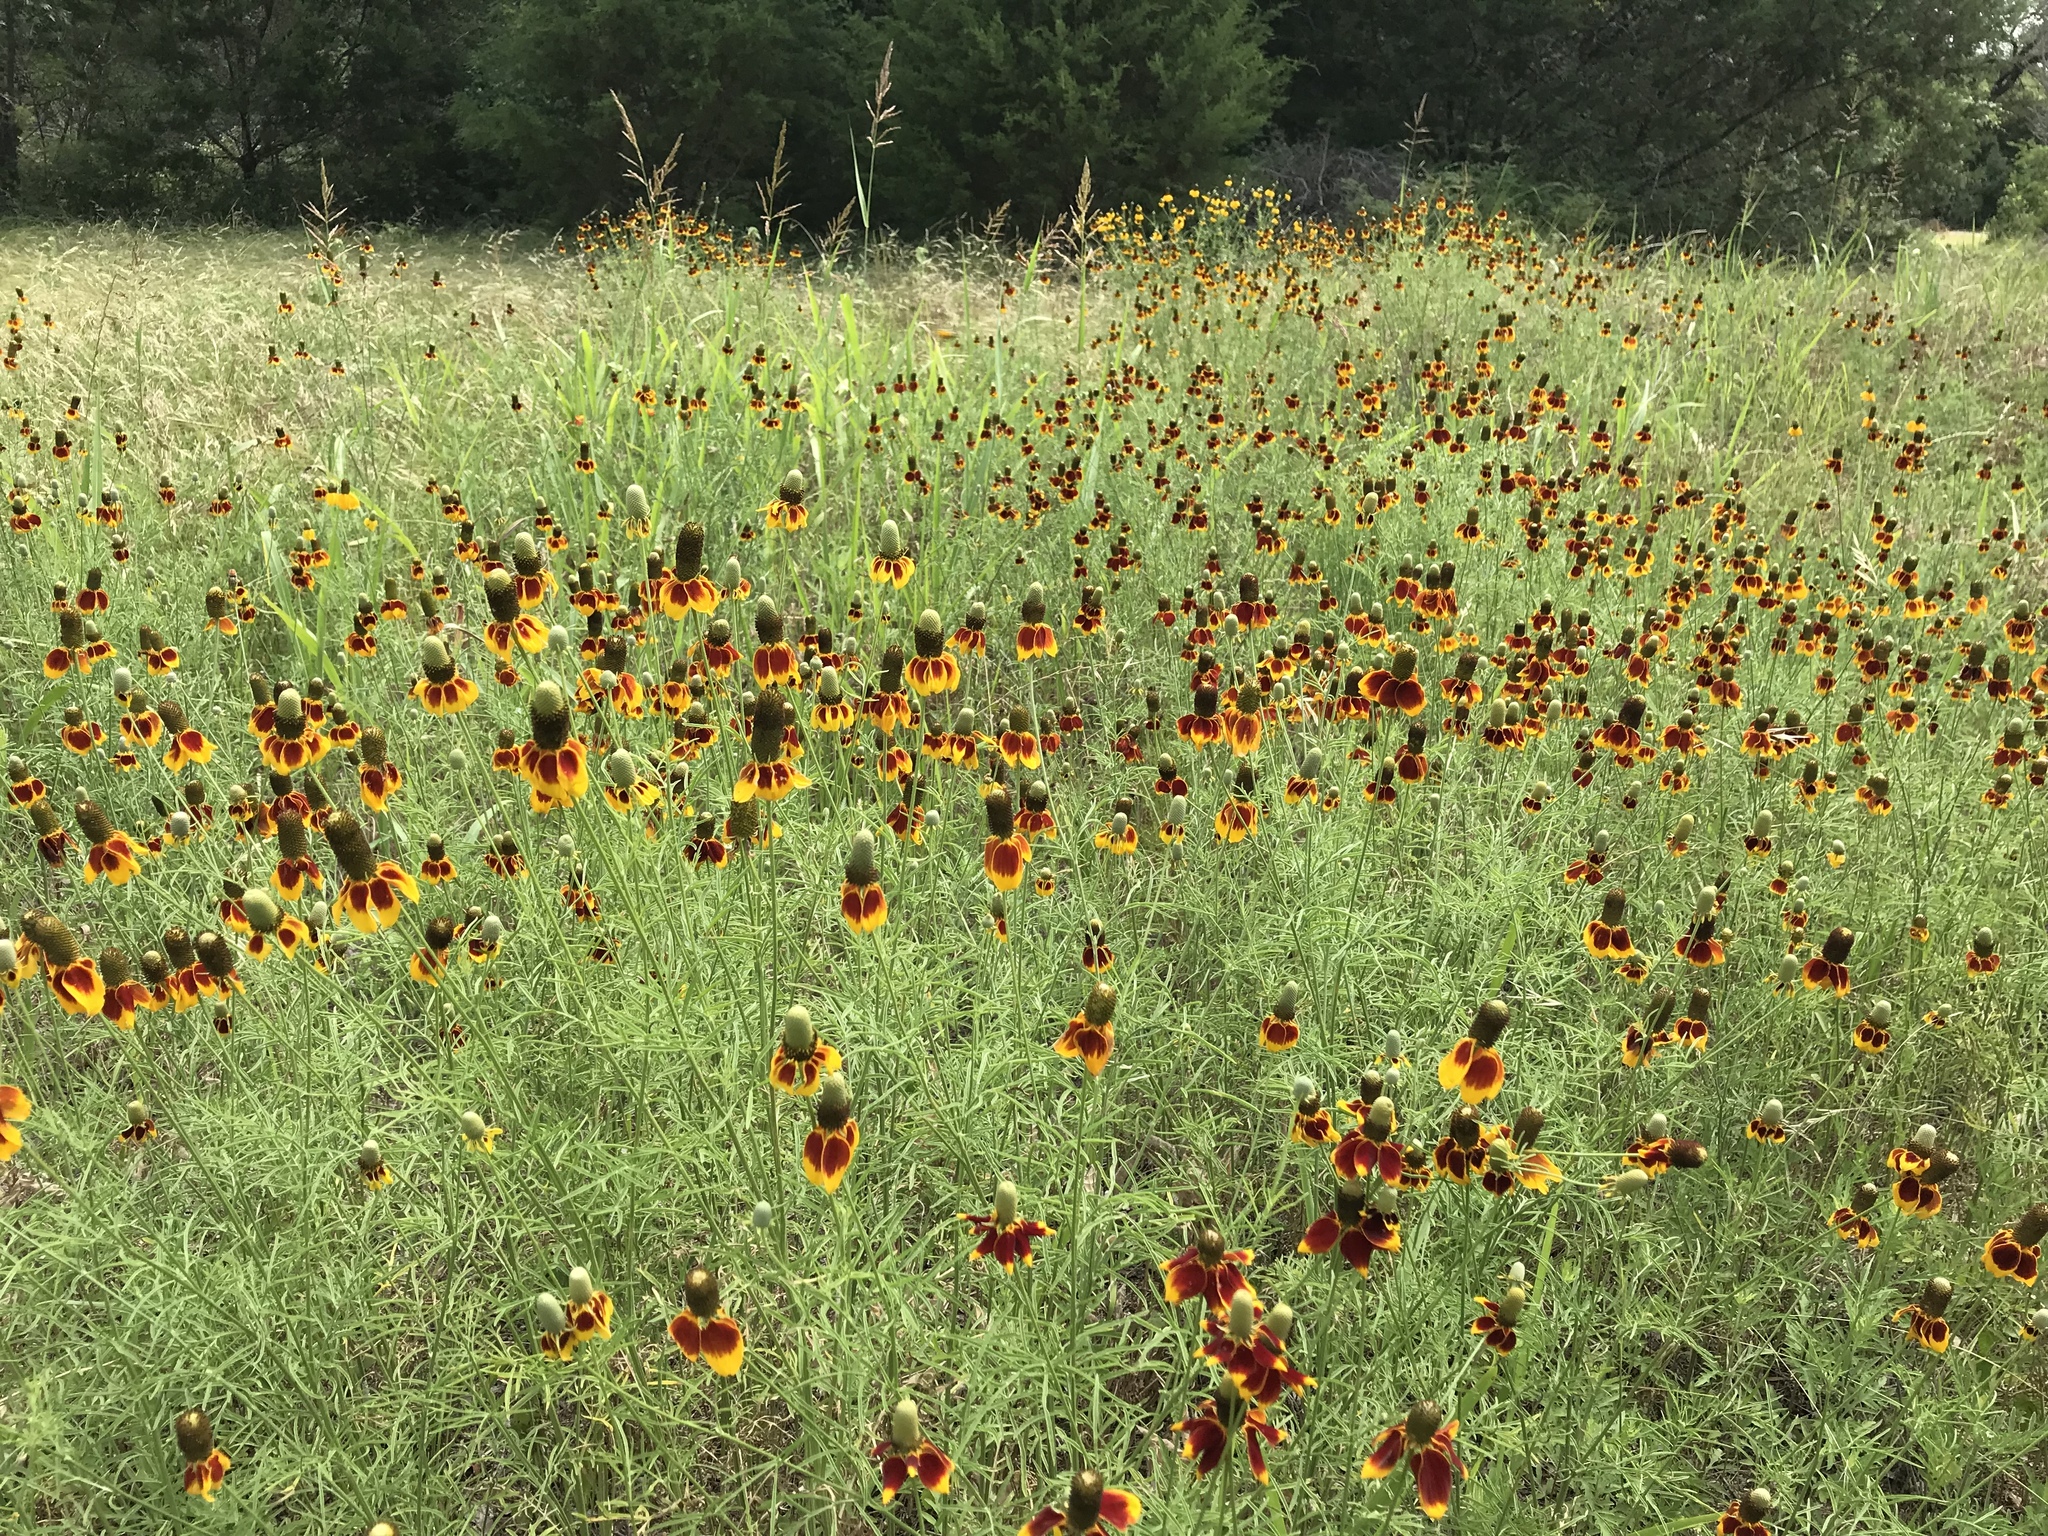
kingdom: Plantae
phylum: Tracheophyta
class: Magnoliopsida
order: Asterales
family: Asteraceae
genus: Ratibida
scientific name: Ratibida columnifera
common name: Prairie coneflower
